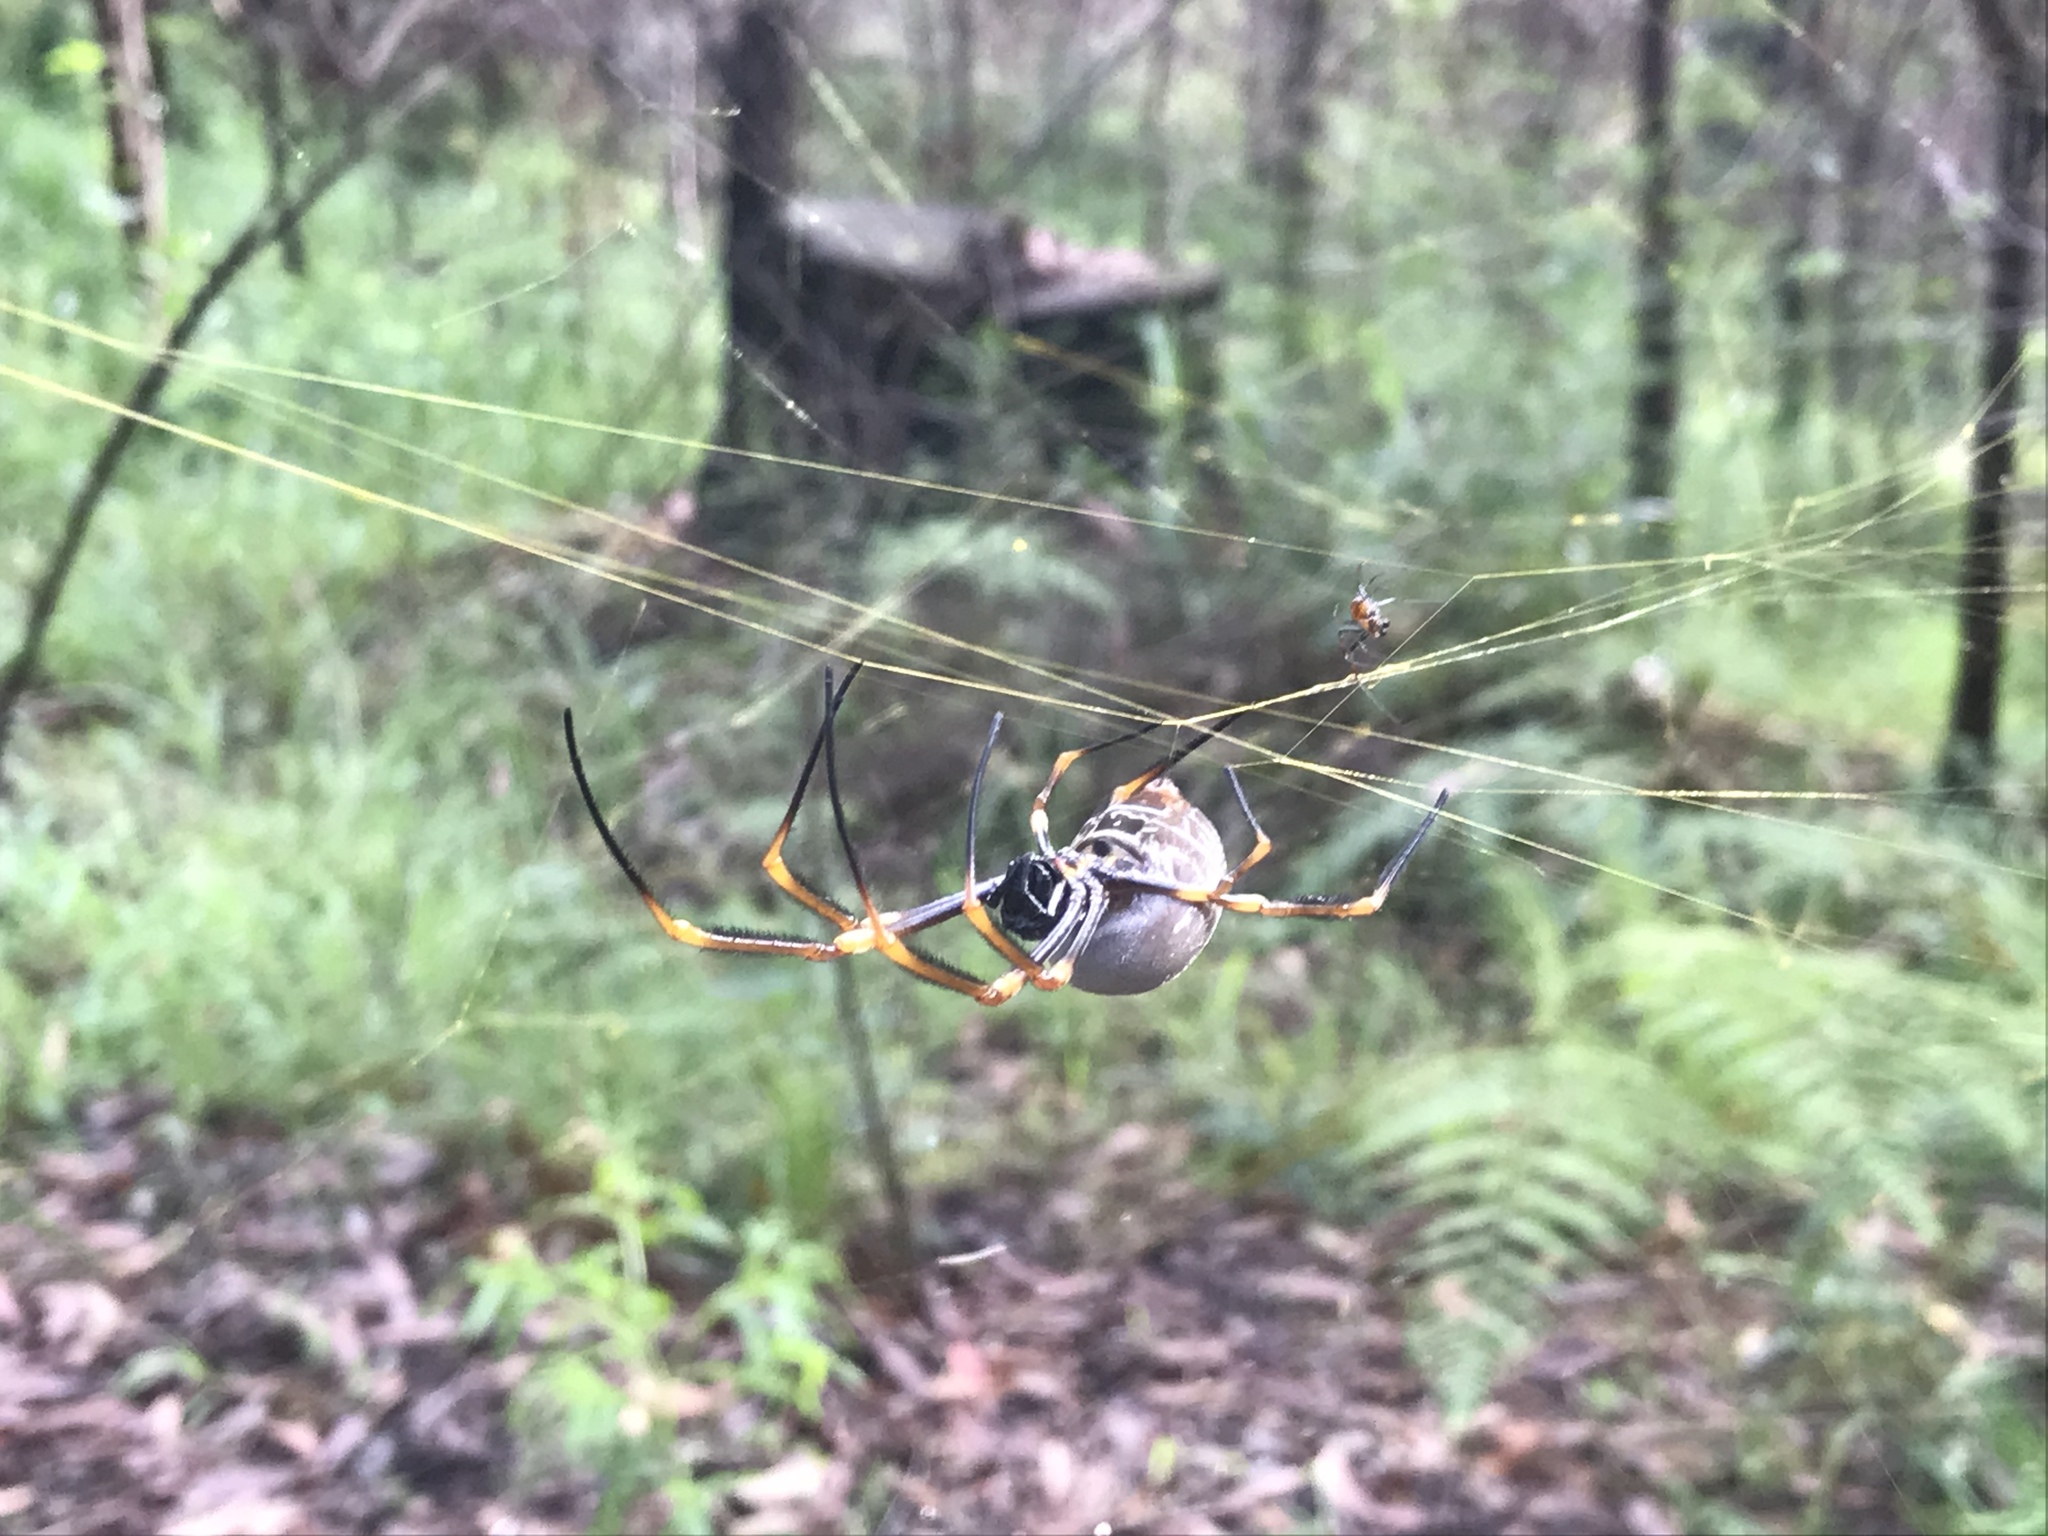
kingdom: Animalia
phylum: Arthropoda
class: Arachnida
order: Araneae
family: Araneidae
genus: Trichonephila
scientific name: Trichonephila plumipes
